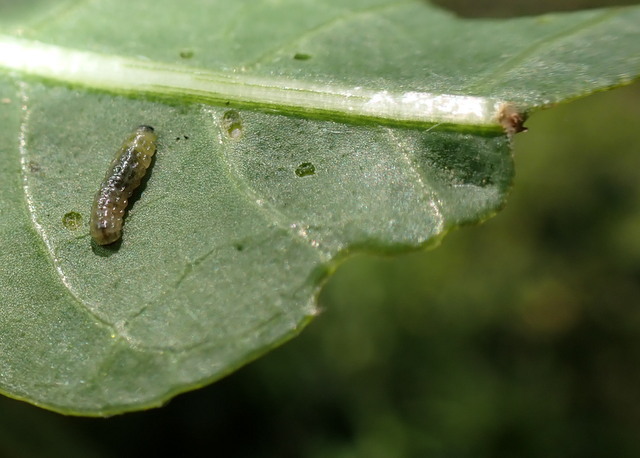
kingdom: Animalia
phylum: Arthropoda
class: Insecta
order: Coleoptera
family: Chrysomelidae
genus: Agasicles
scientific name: Agasicles hygrophila
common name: Alligatorweed flea beetle
